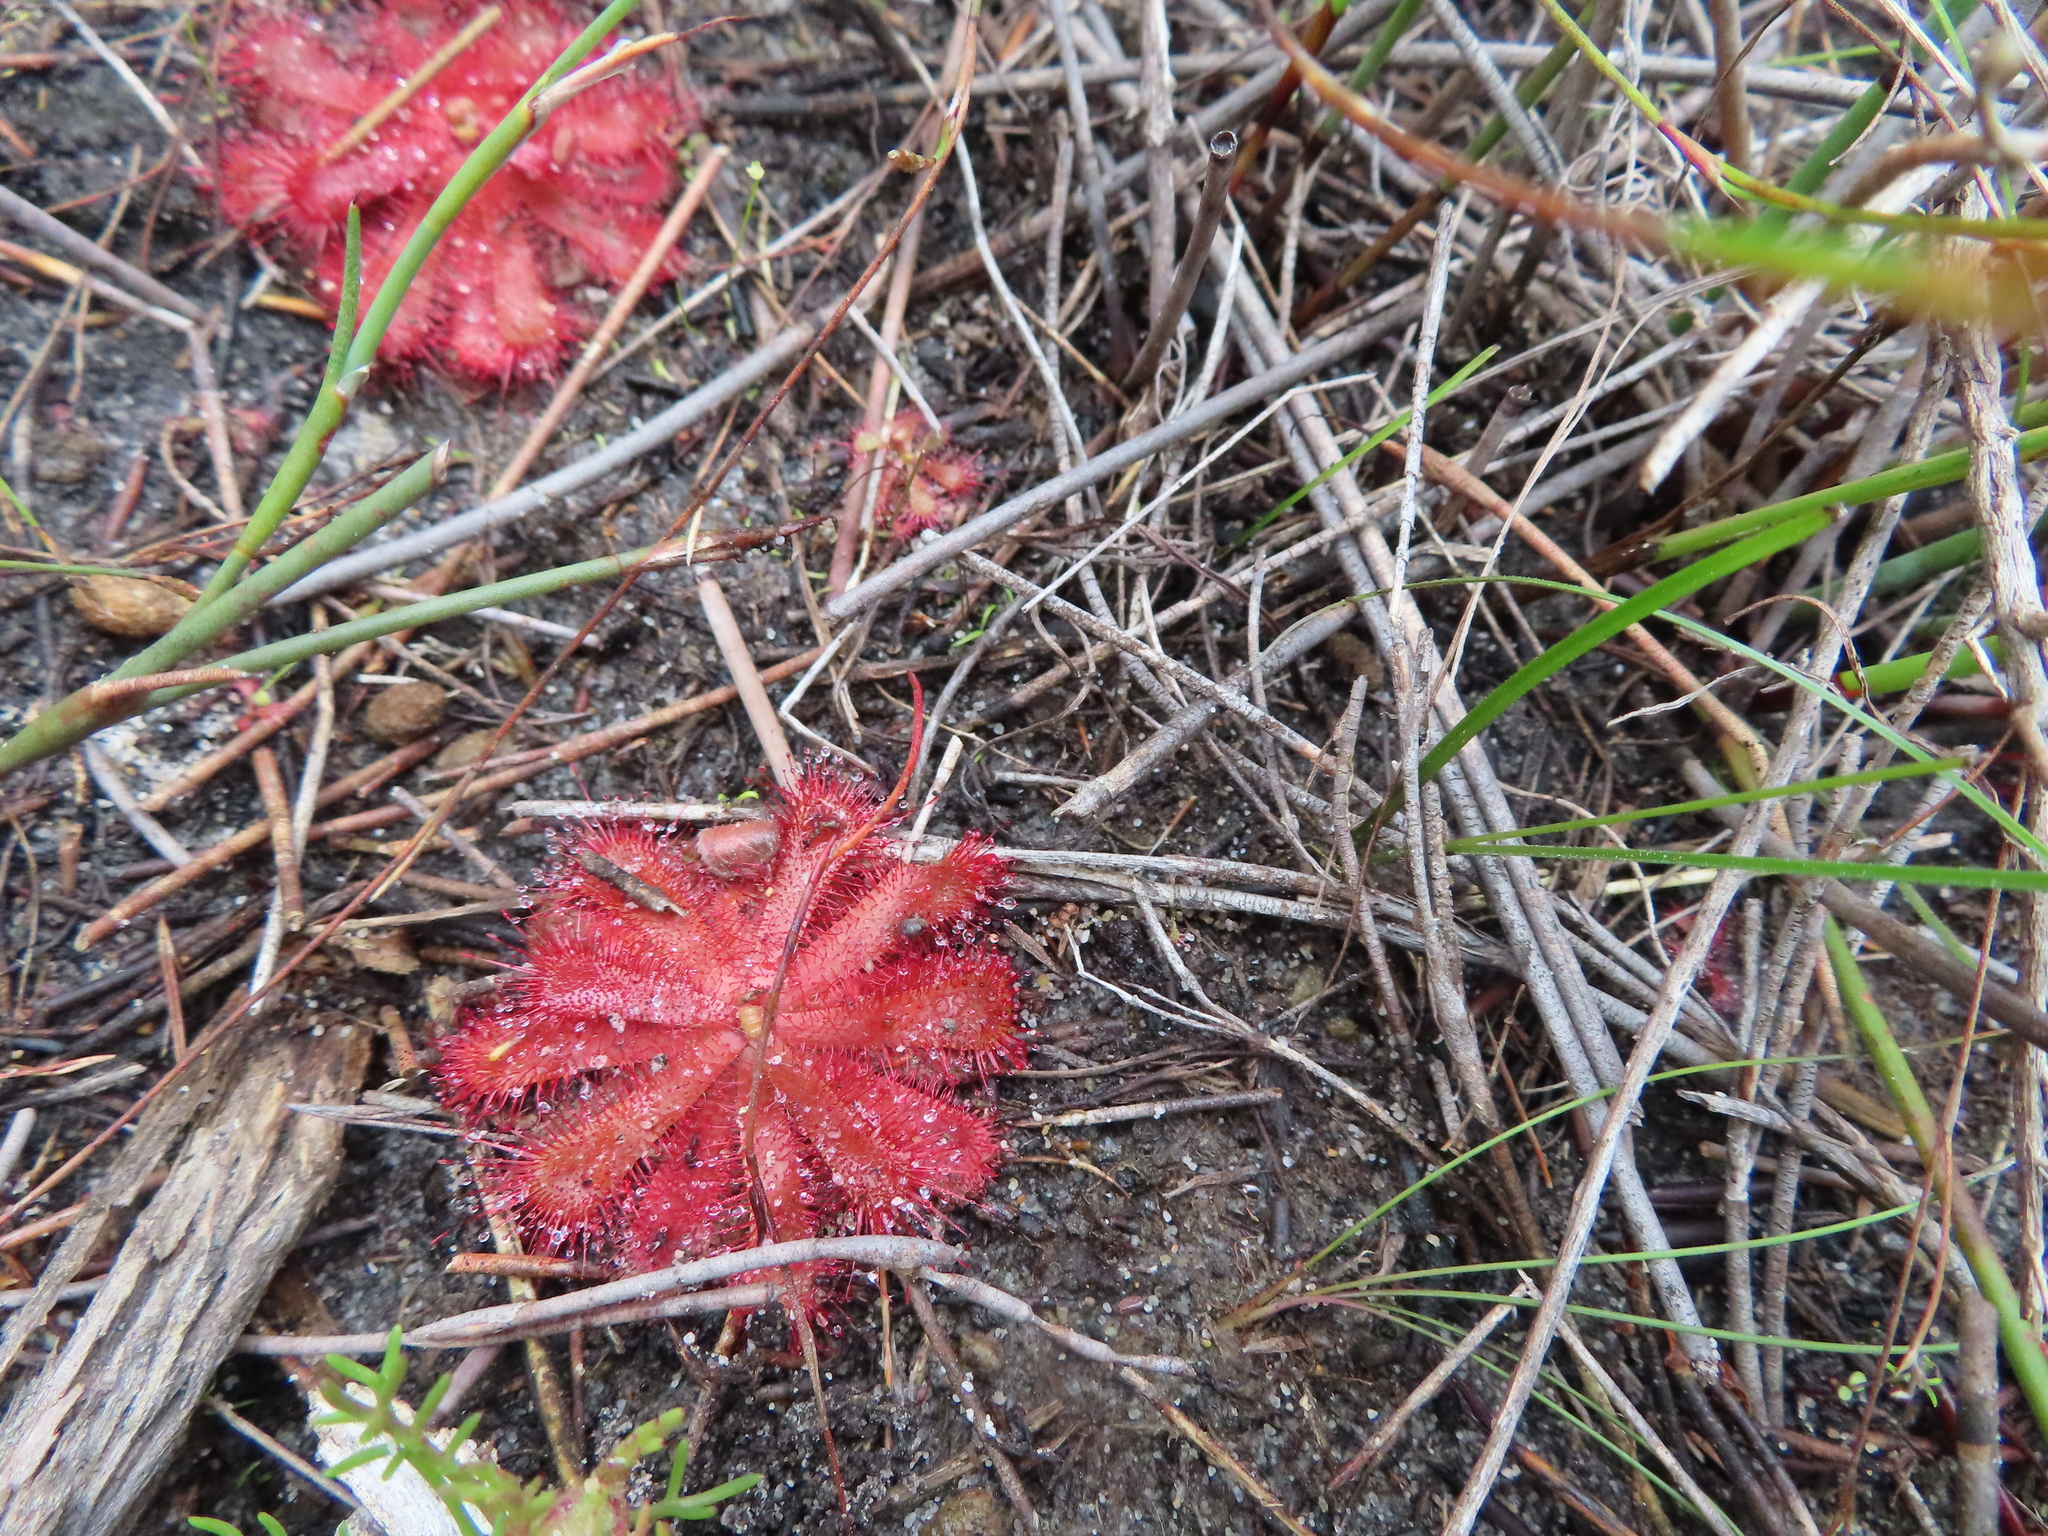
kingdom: Plantae
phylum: Tracheophyta
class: Magnoliopsida
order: Caryophyllales
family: Droseraceae
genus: Drosera
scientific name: Drosera trinervia
